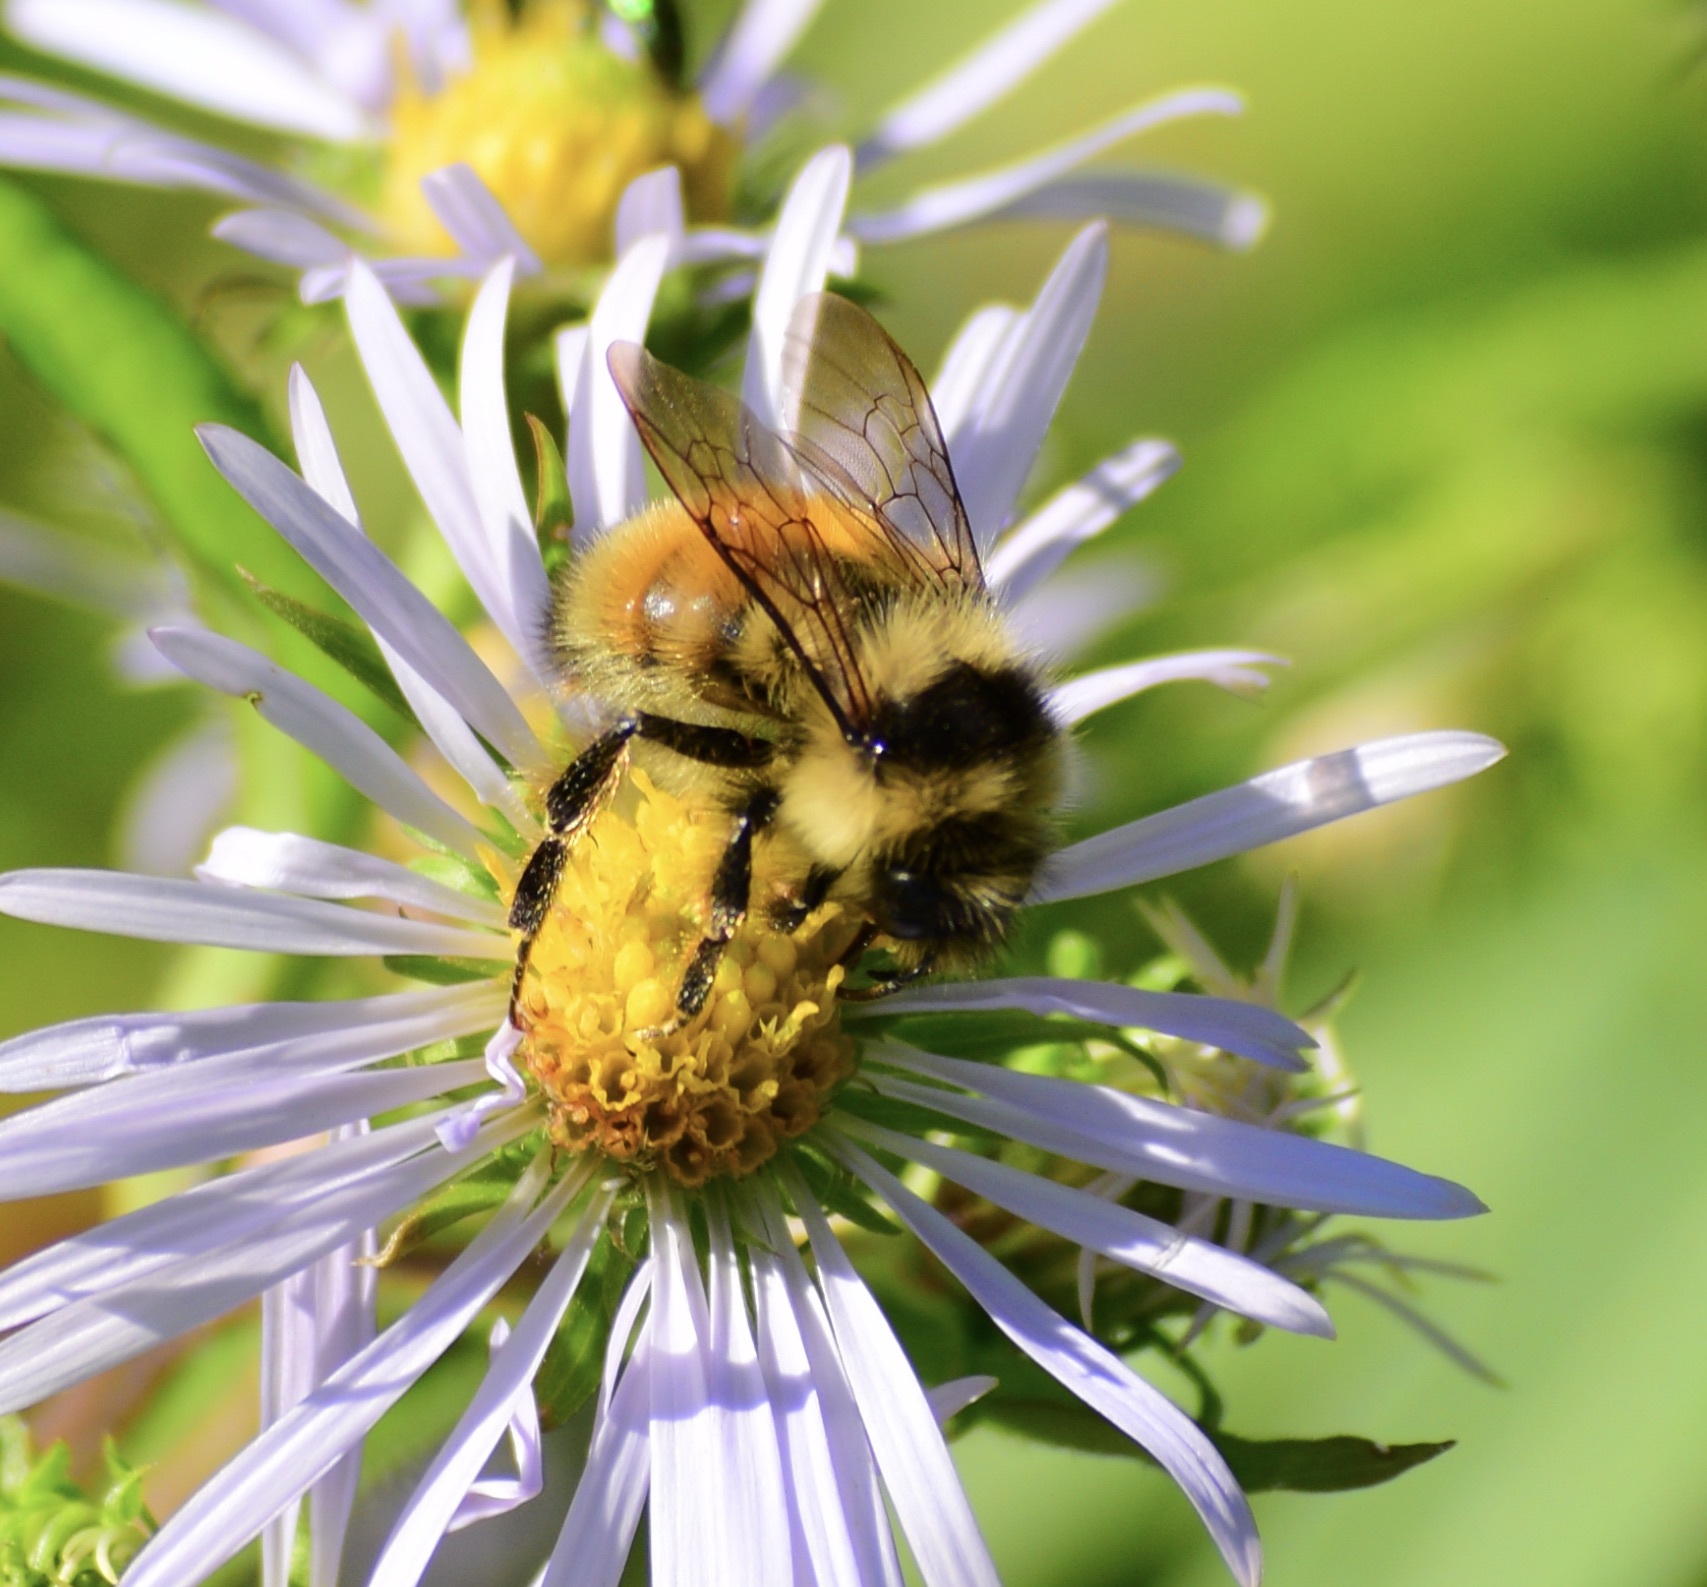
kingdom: Animalia
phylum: Arthropoda
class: Insecta
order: Hymenoptera
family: Apidae
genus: Bombus
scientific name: Bombus ternarius
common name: Tri-colored bumble bee
